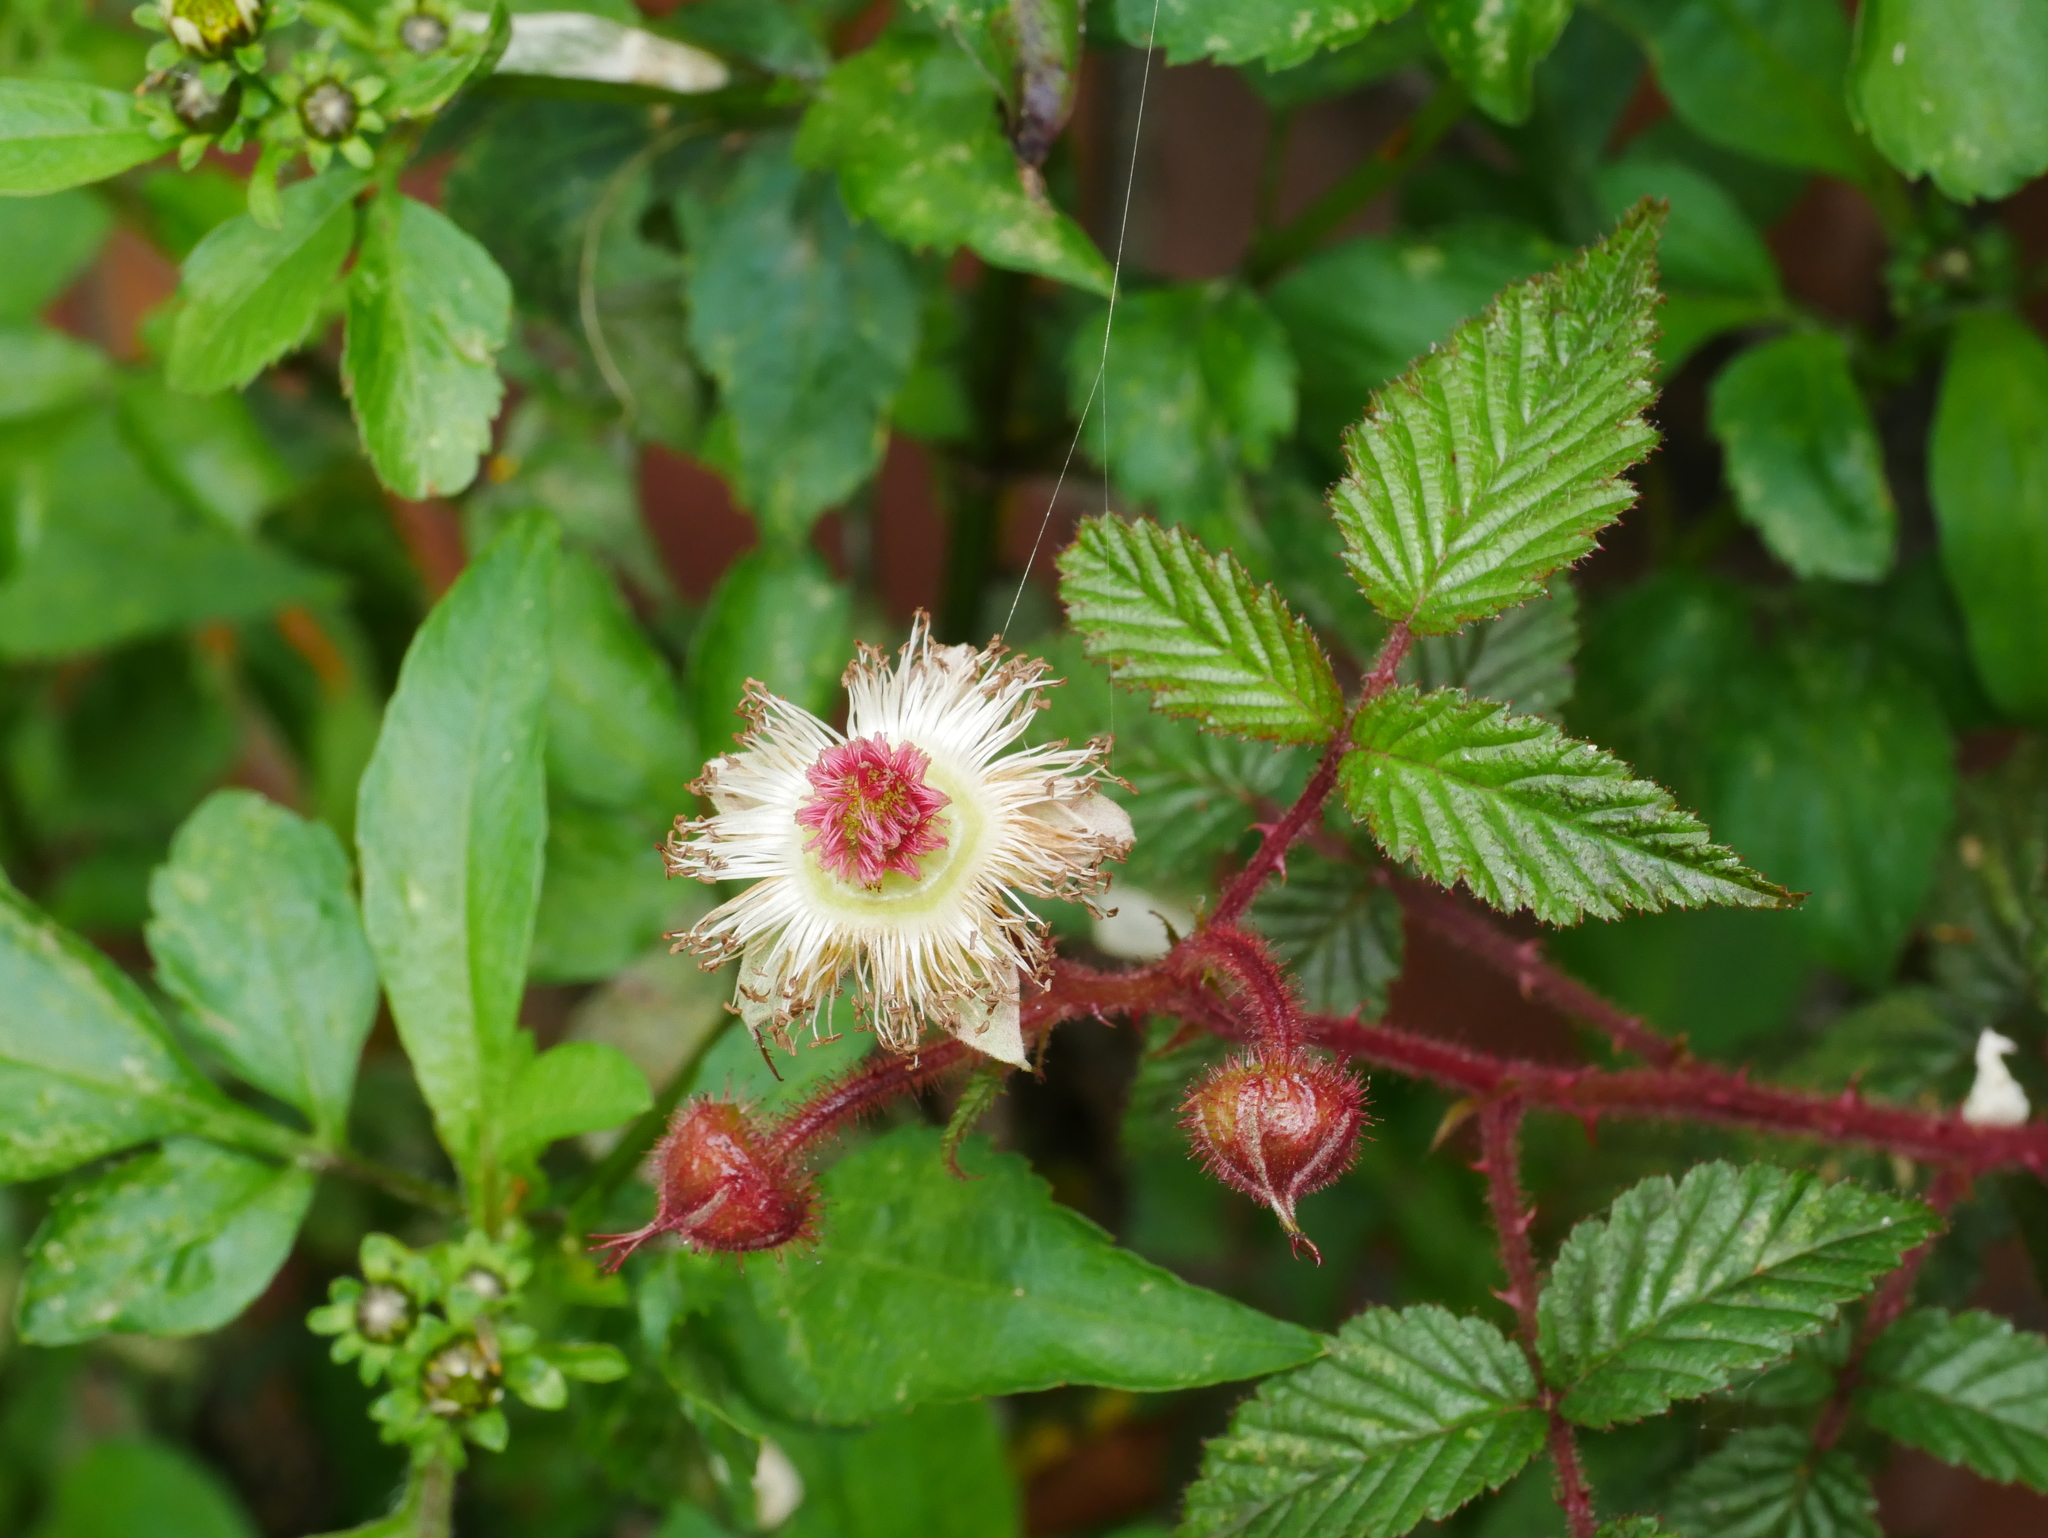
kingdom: Plantae
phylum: Tracheophyta
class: Magnoliopsida
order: Rosales
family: Rosaceae
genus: Rubus
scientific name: Rubus croceacanthus
